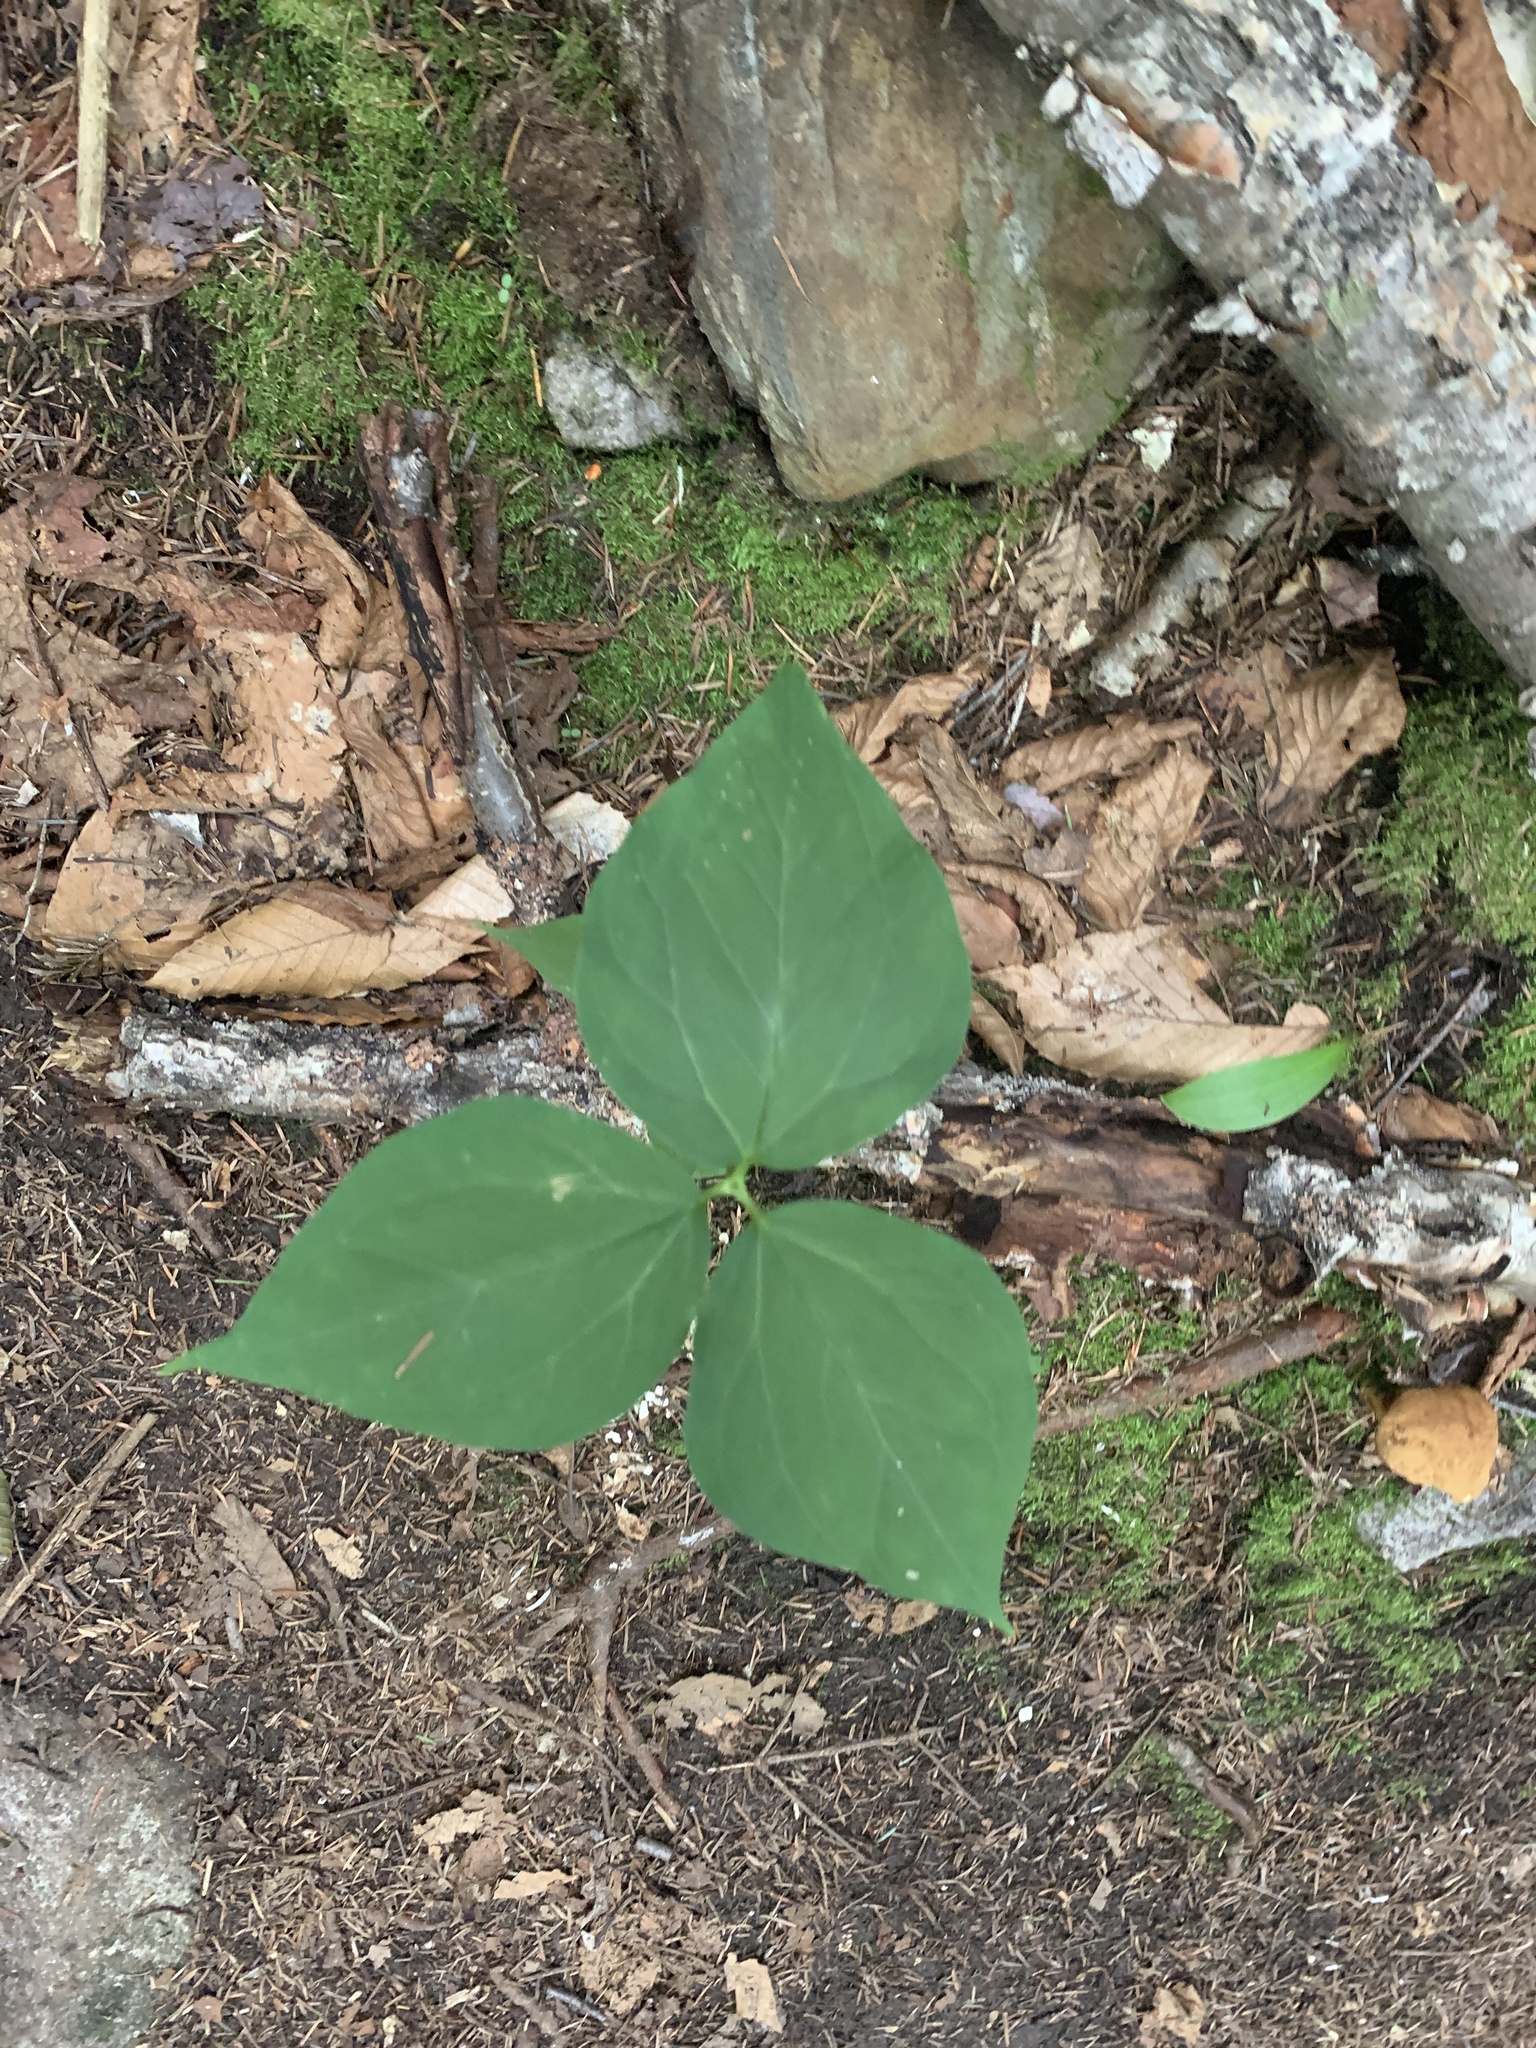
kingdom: Plantae
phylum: Tracheophyta
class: Liliopsida
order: Liliales
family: Melanthiaceae
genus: Trillium
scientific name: Trillium undulatum
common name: Paint trillium
